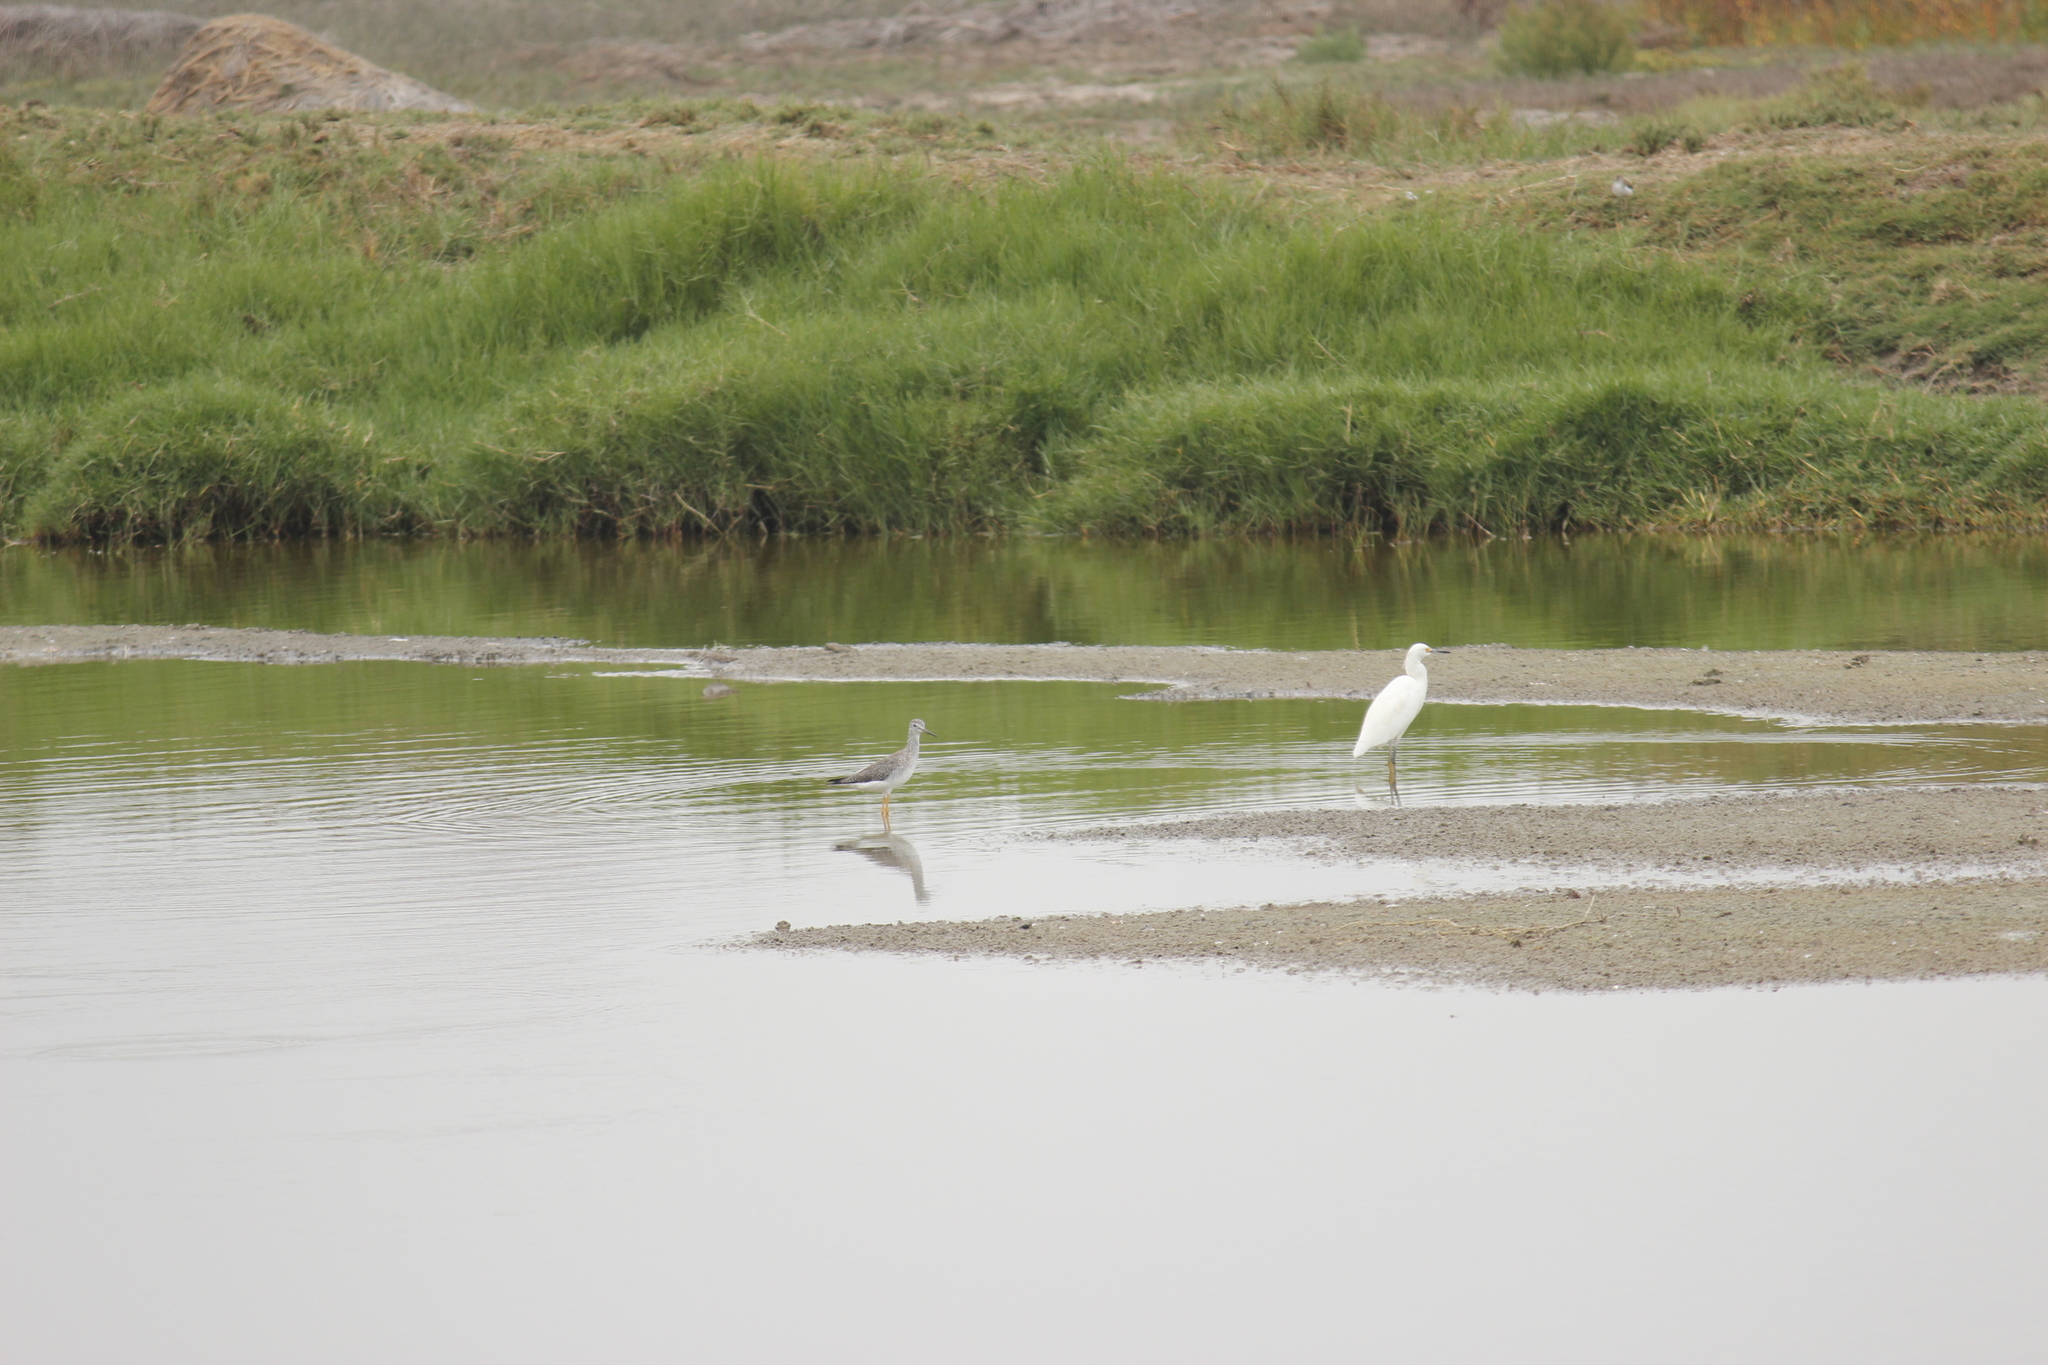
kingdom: Animalia
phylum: Chordata
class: Aves
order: Pelecaniformes
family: Ardeidae
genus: Egretta
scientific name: Egretta thula
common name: Snowy egret
